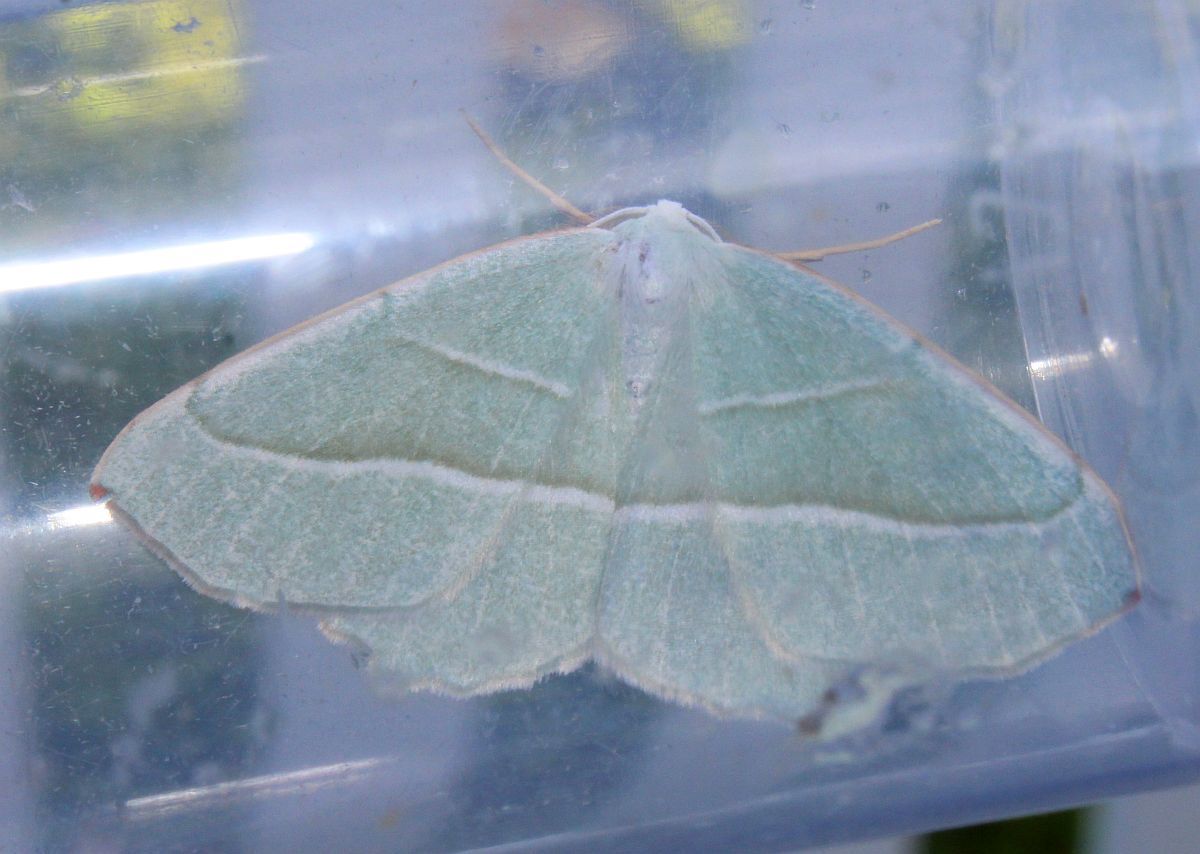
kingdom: Animalia
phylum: Arthropoda
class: Insecta
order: Lepidoptera
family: Geometridae
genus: Campaea
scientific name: Campaea margaritaria
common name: Light emerald
